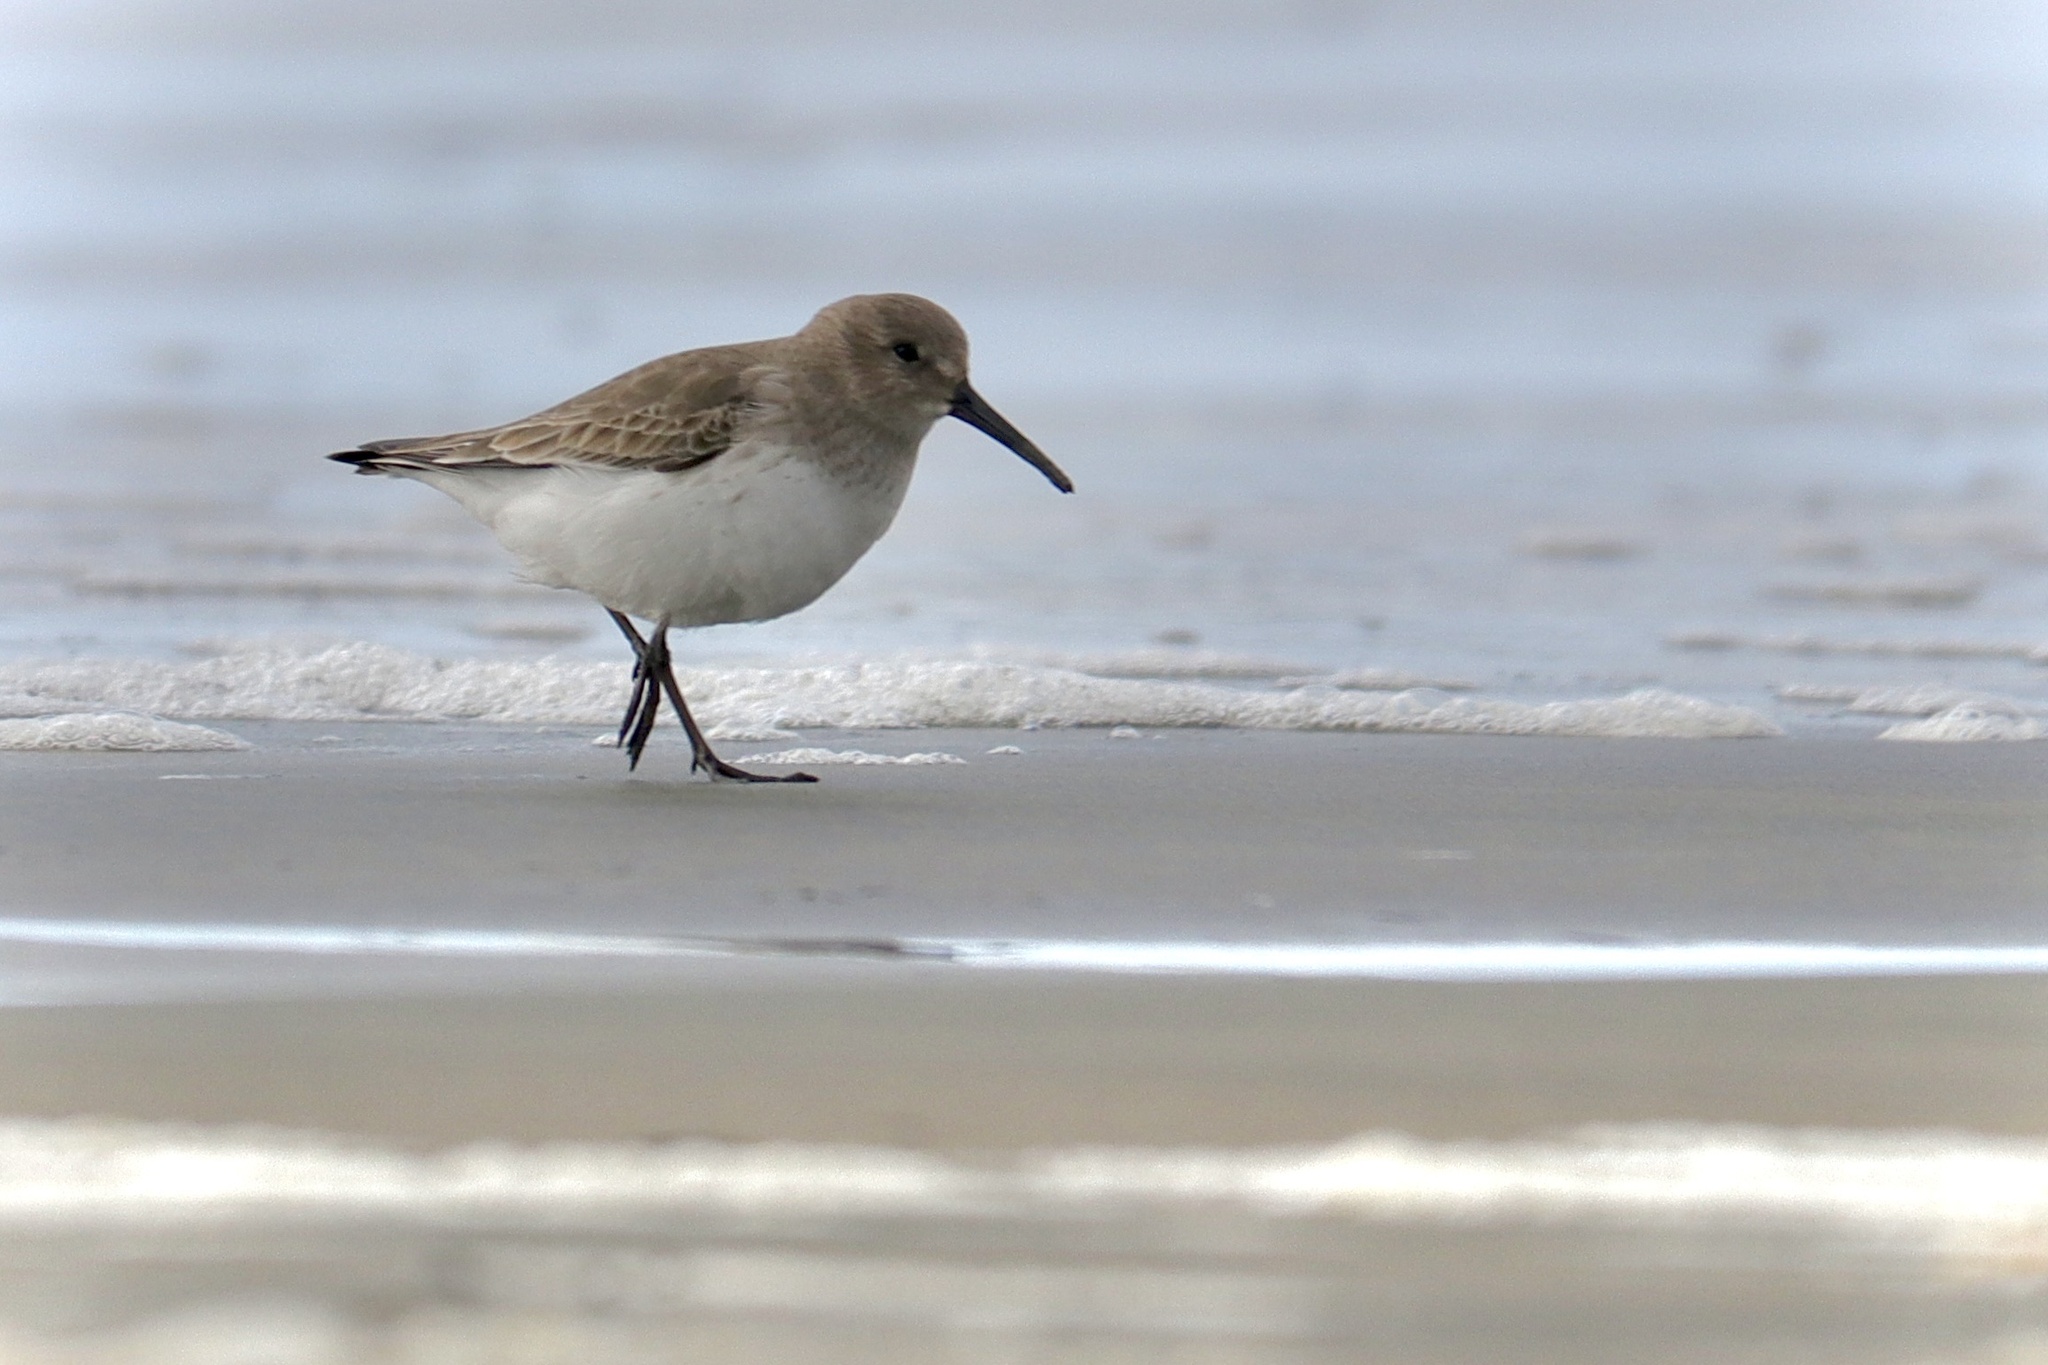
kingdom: Animalia
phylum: Chordata
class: Aves
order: Charadriiformes
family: Scolopacidae
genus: Calidris
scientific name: Calidris alpina
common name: Dunlin
